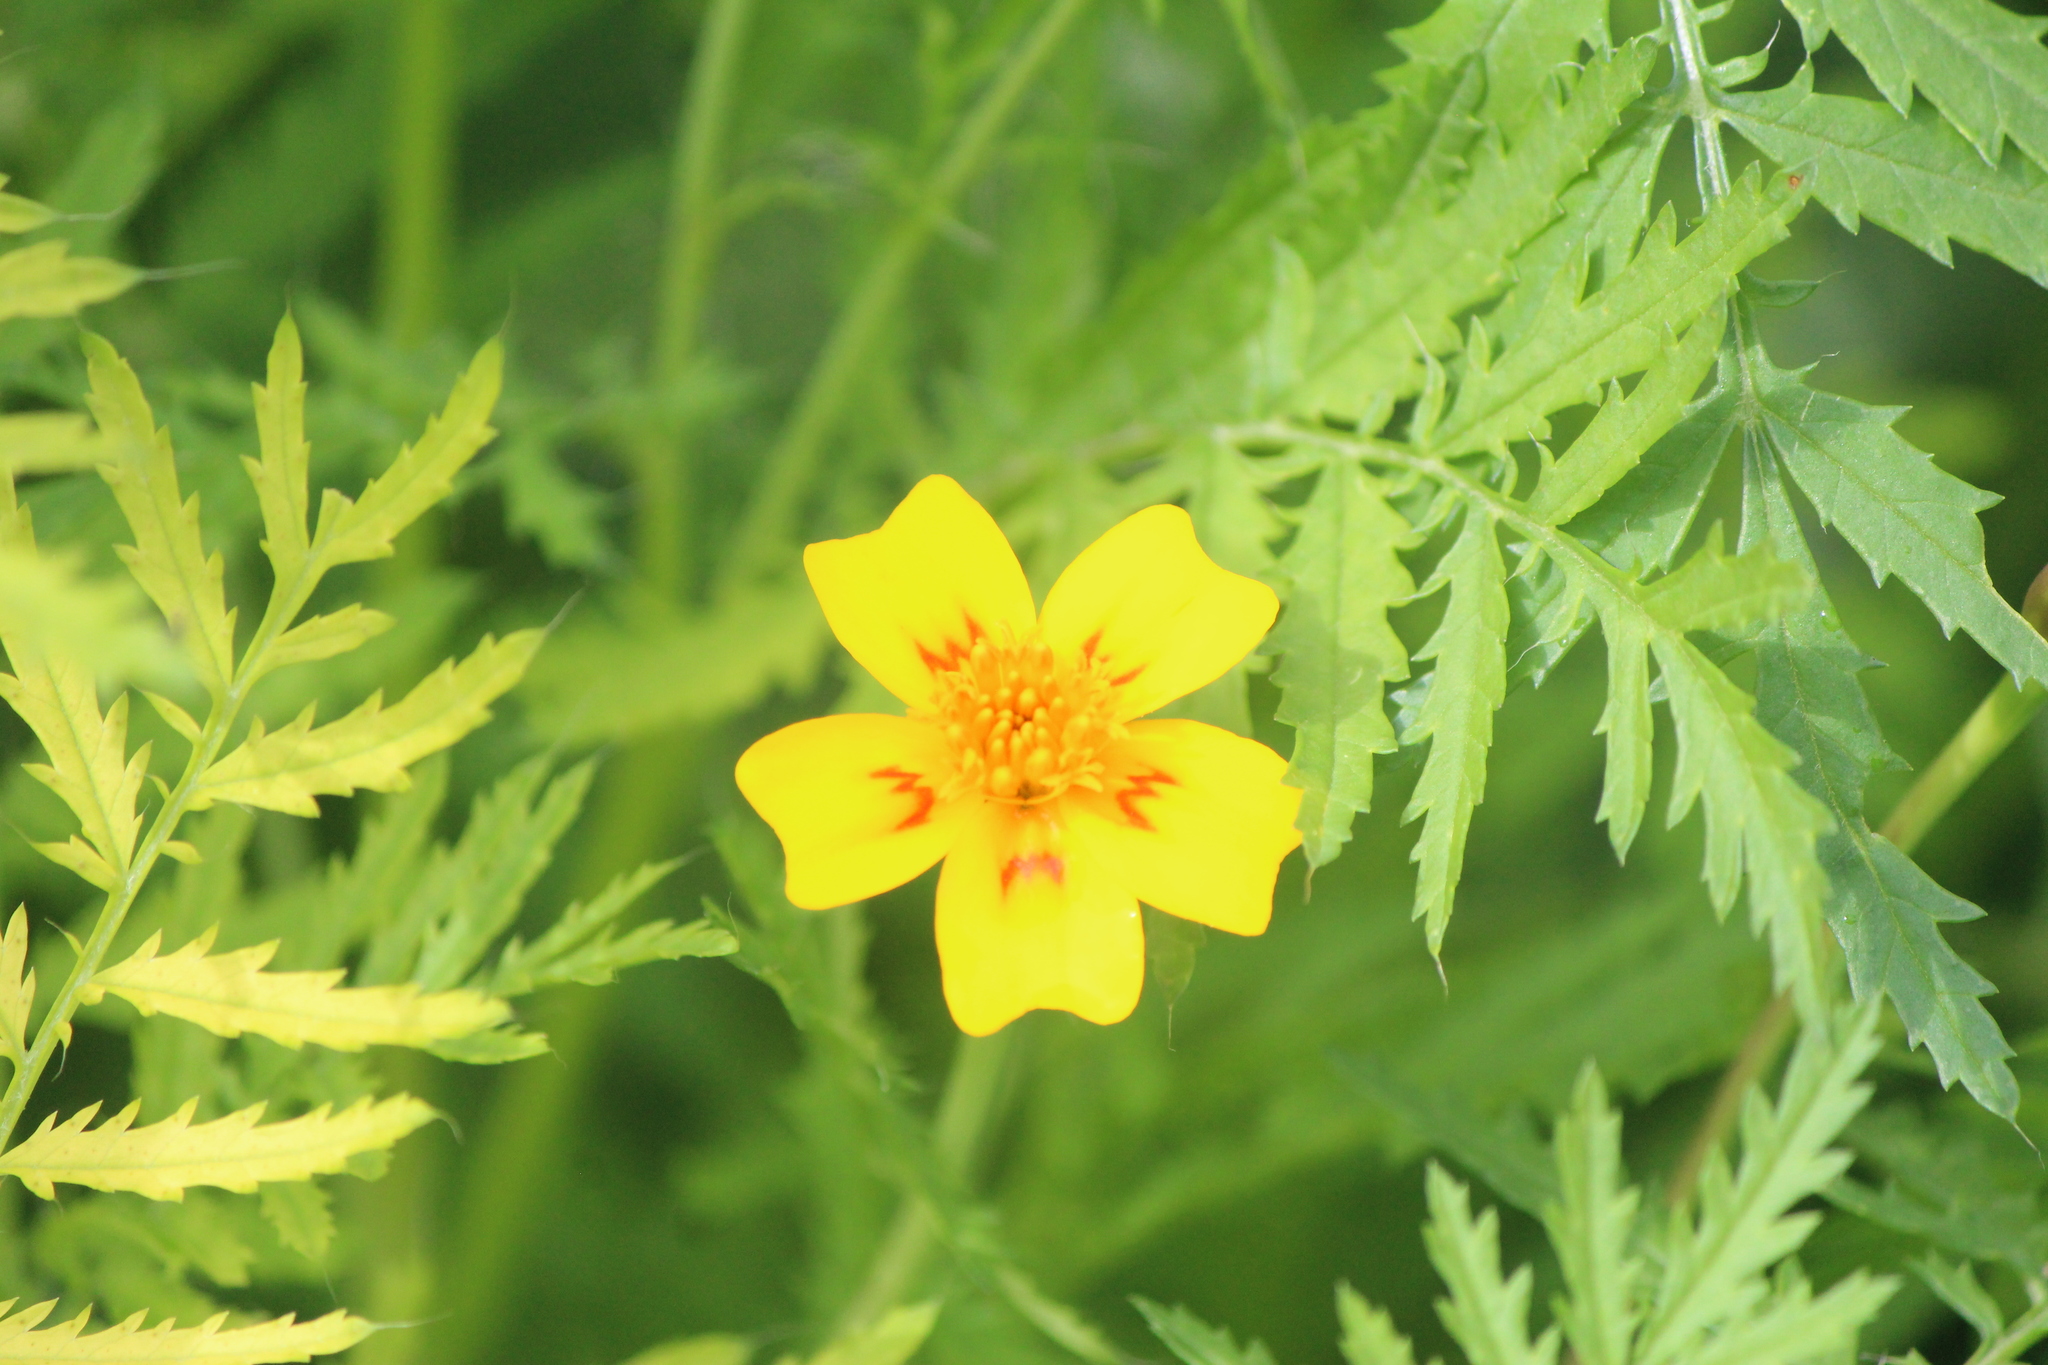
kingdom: Plantae
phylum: Tracheophyta
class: Magnoliopsida
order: Asterales
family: Asteraceae
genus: Tagetes
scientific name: Tagetes lunulata
